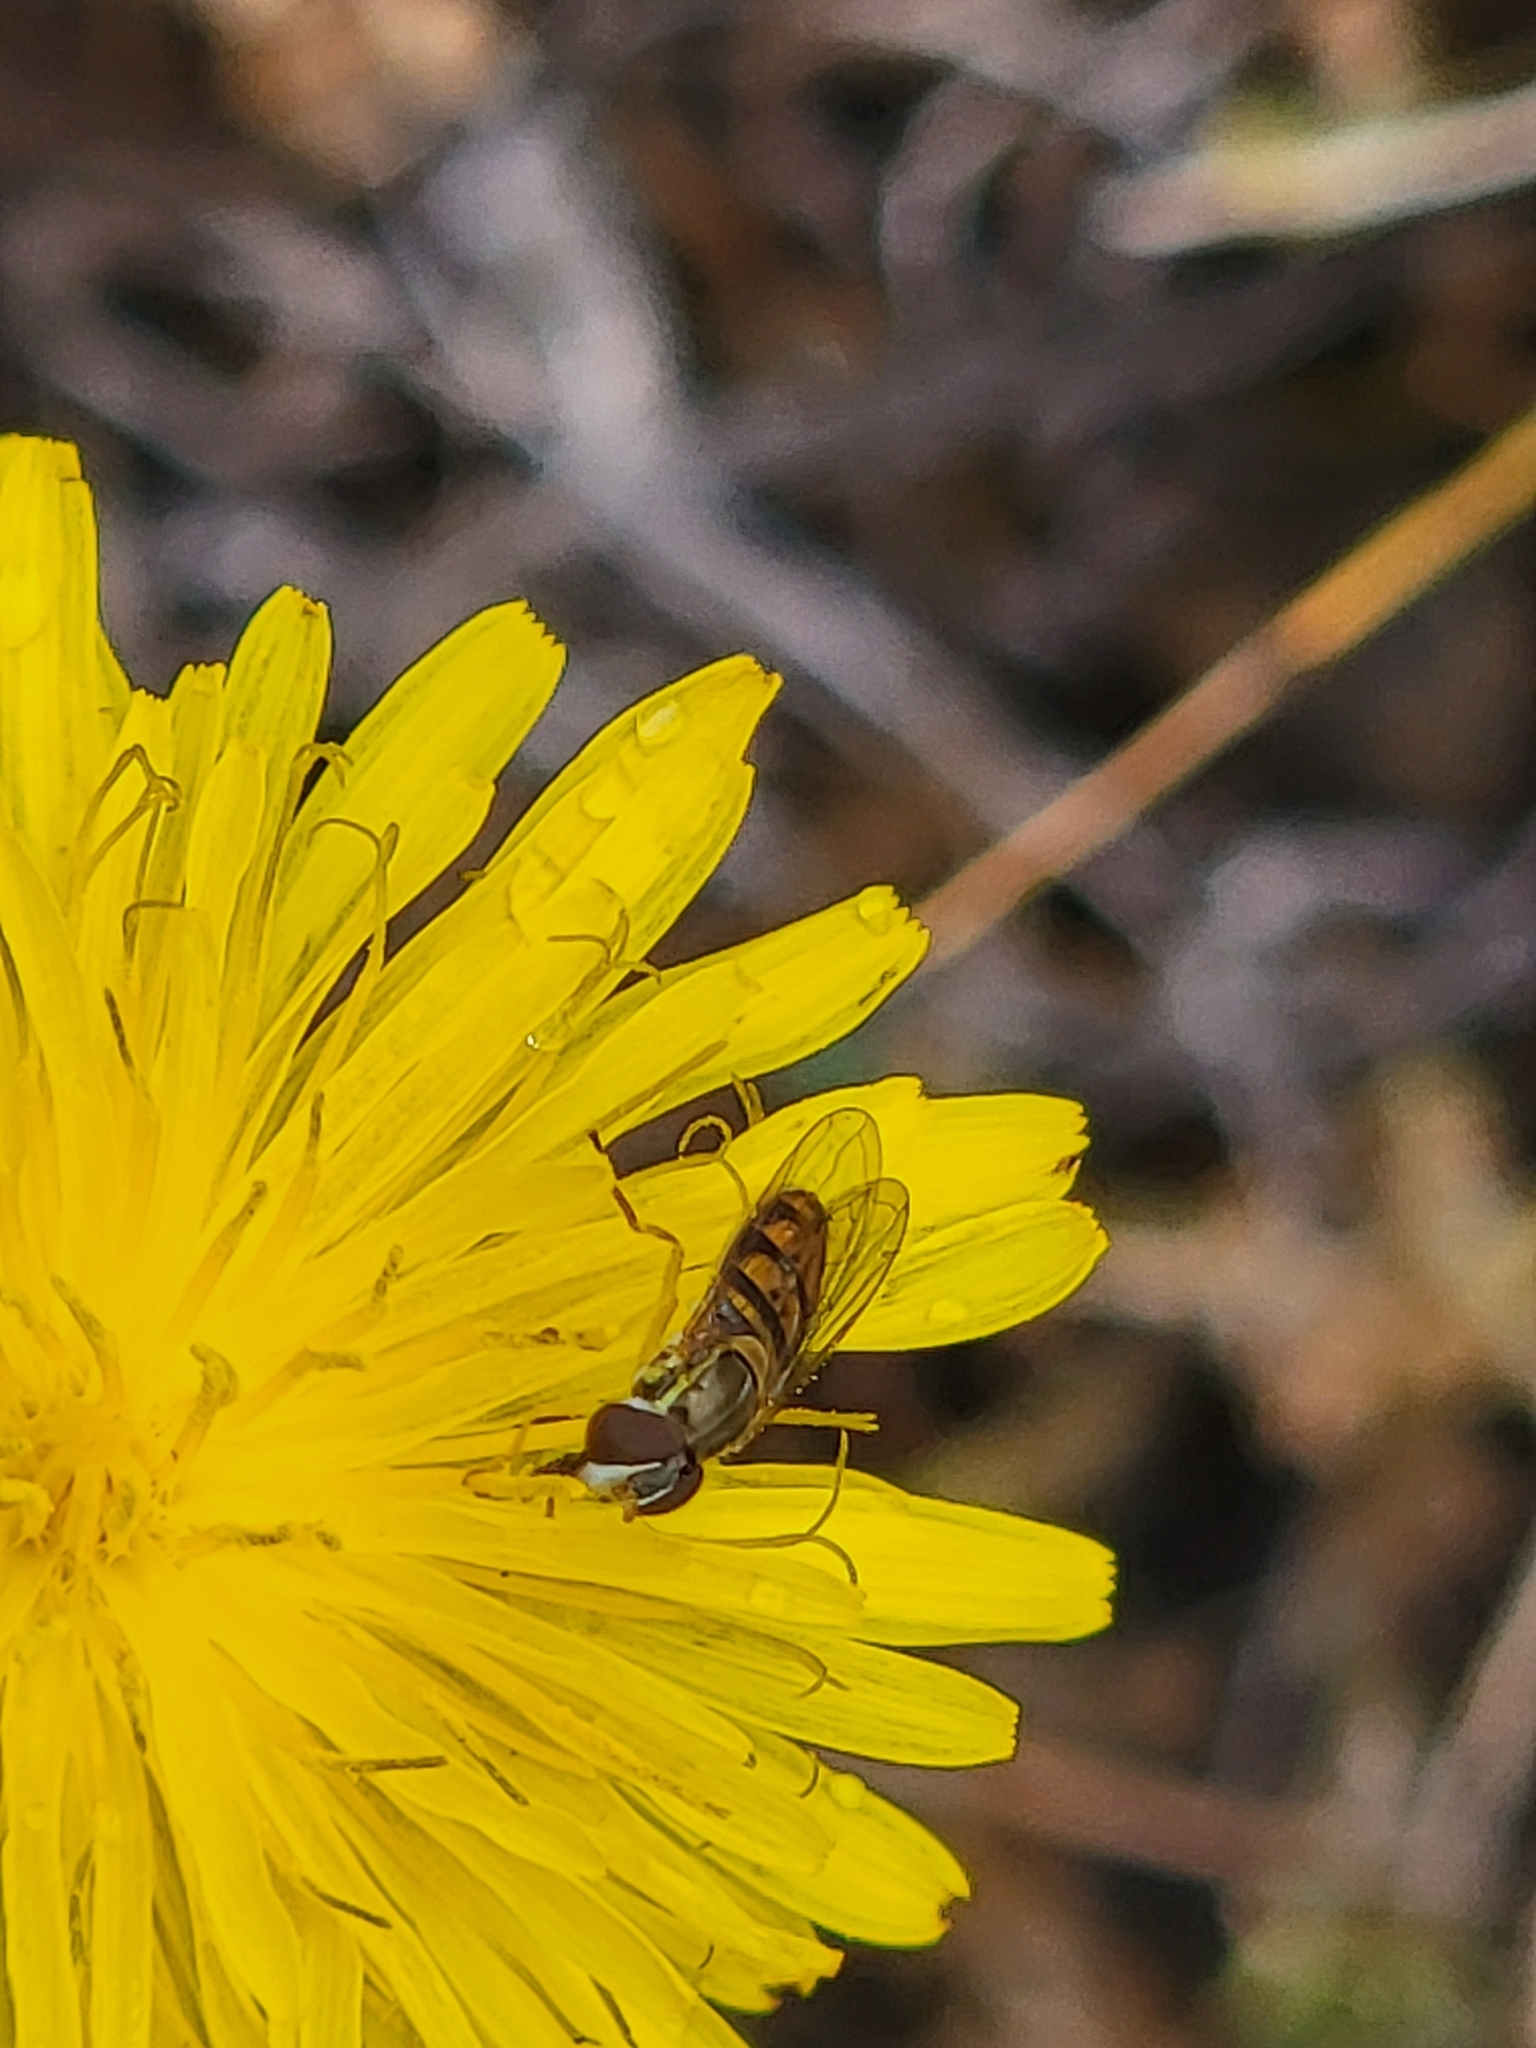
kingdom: Animalia
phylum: Arthropoda
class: Insecta
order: Diptera
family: Syrphidae
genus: Toxomerus
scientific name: Toxomerus marginatus
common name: Syrphid fly
